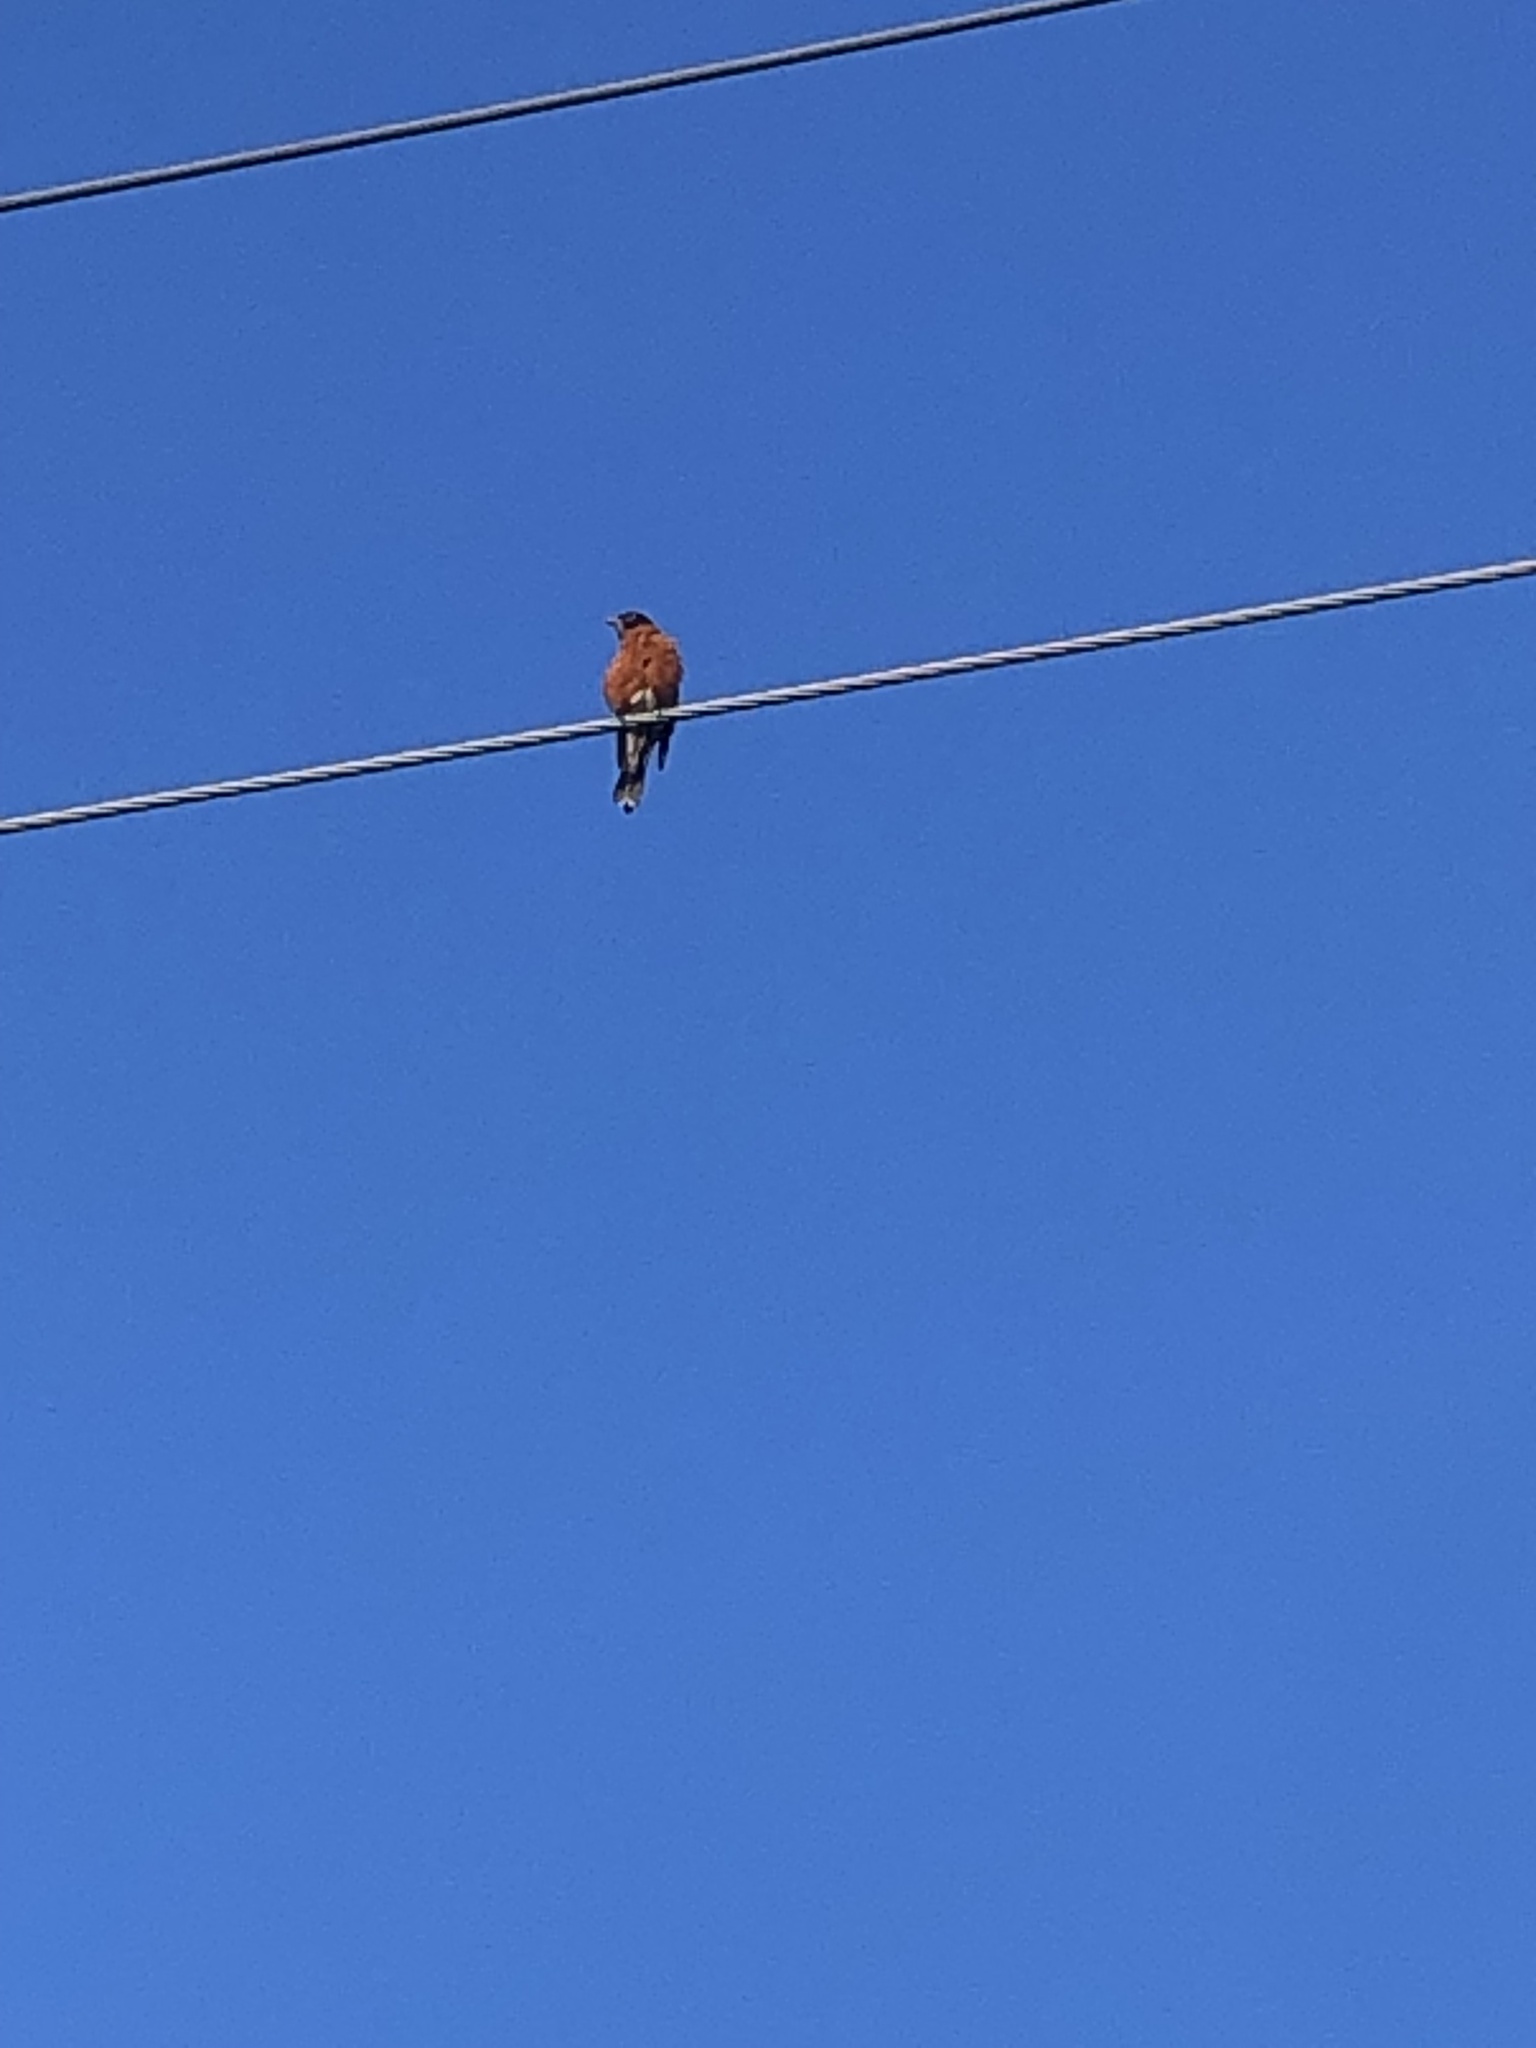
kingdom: Animalia
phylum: Chordata
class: Aves
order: Passeriformes
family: Turdidae
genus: Turdus
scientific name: Turdus migratorius
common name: American robin
